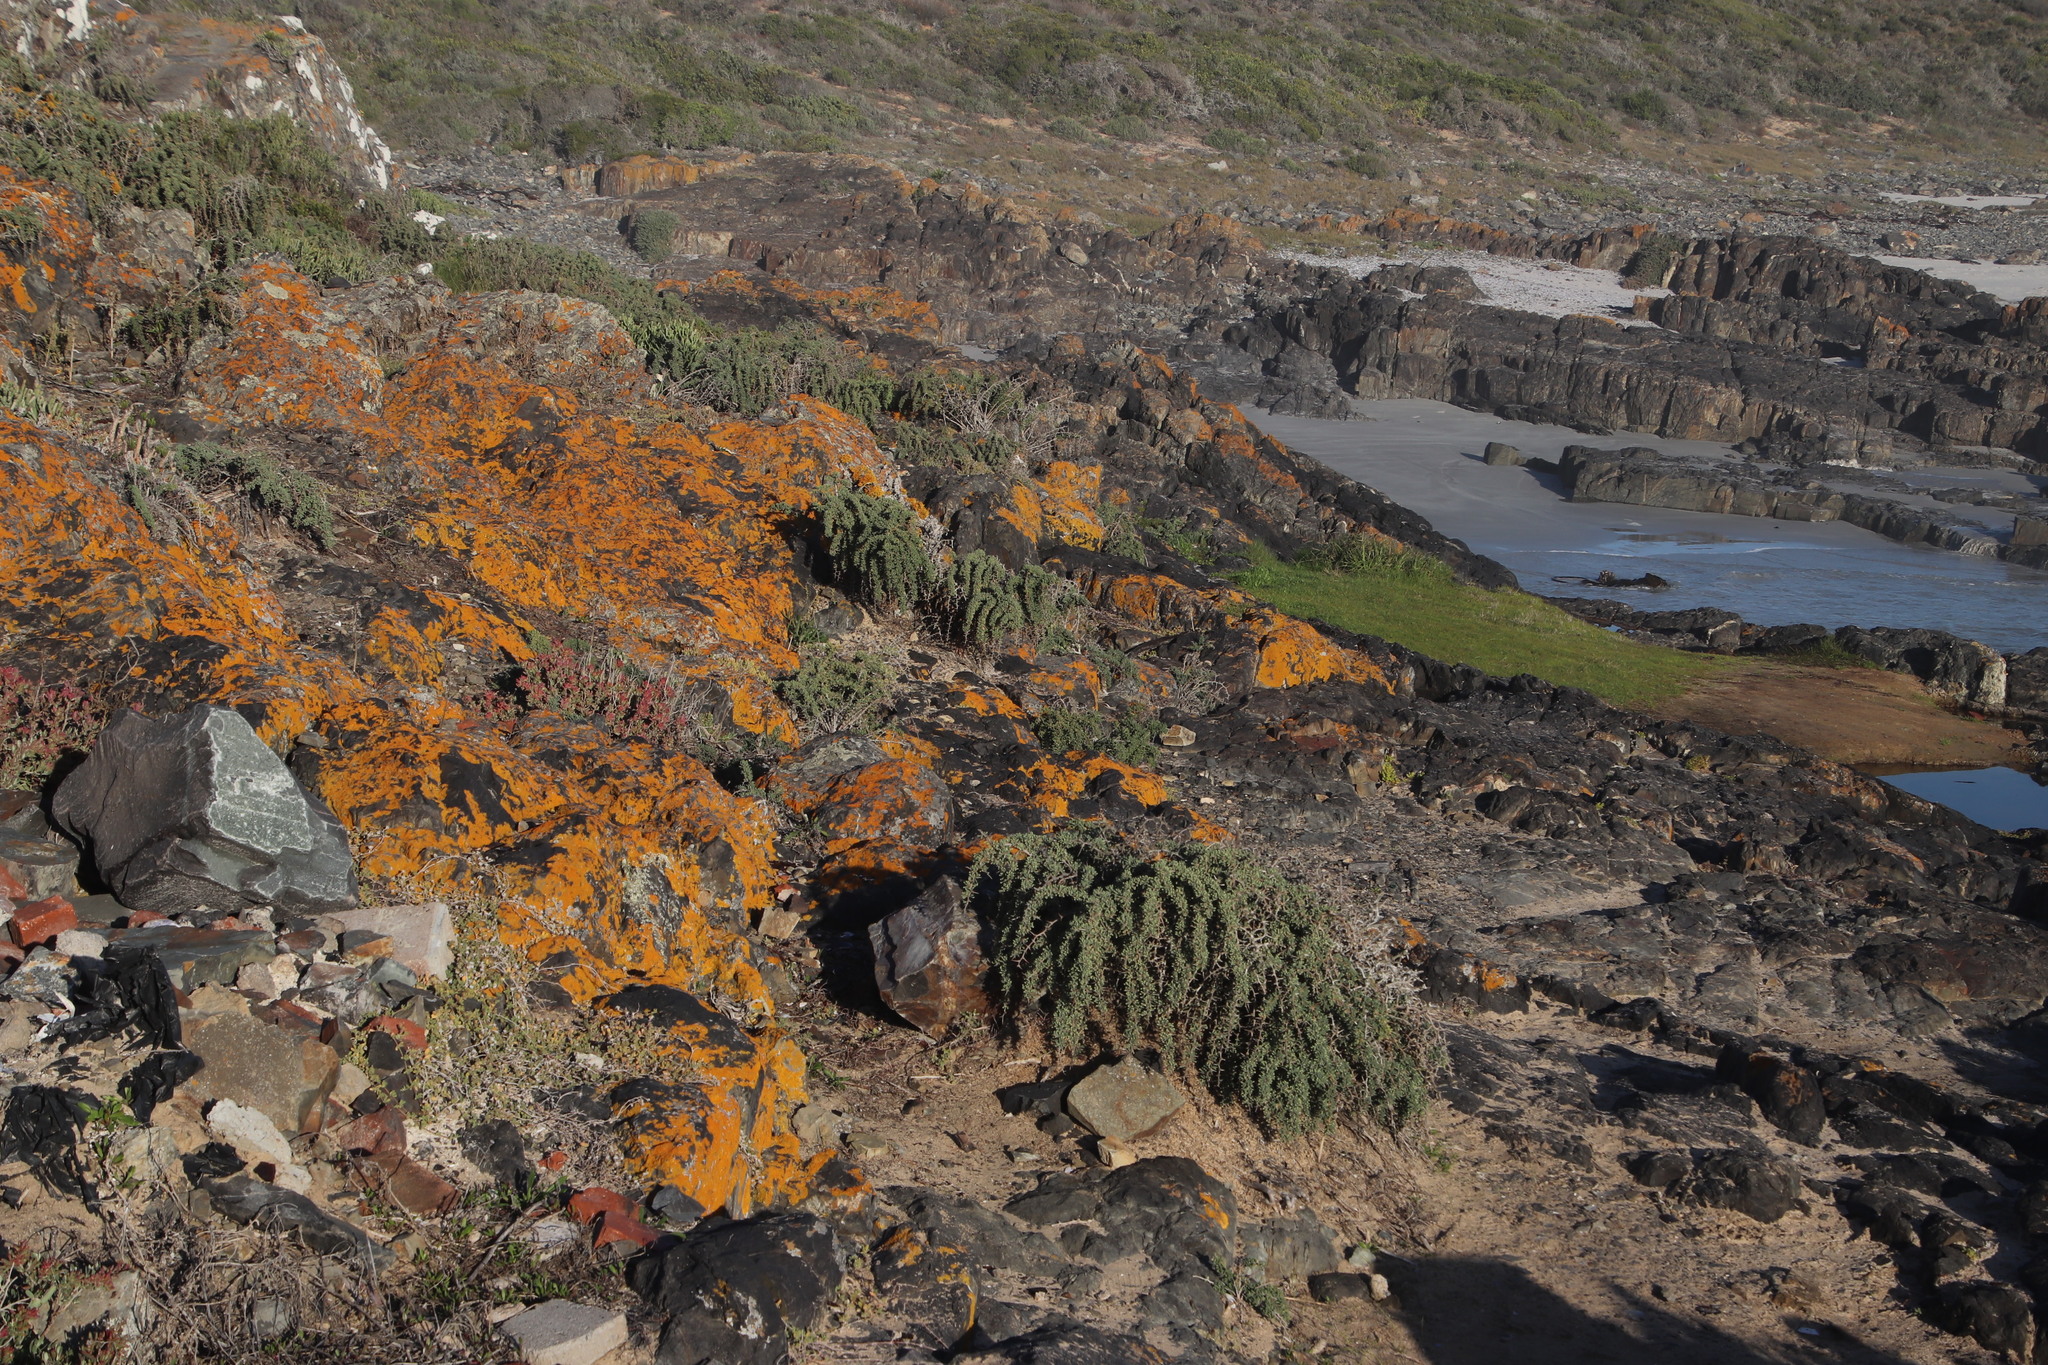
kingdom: Plantae
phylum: Tracheophyta
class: Liliopsida
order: Asparagales
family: Asparagaceae
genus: Asparagus
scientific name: Asparagus capensis
